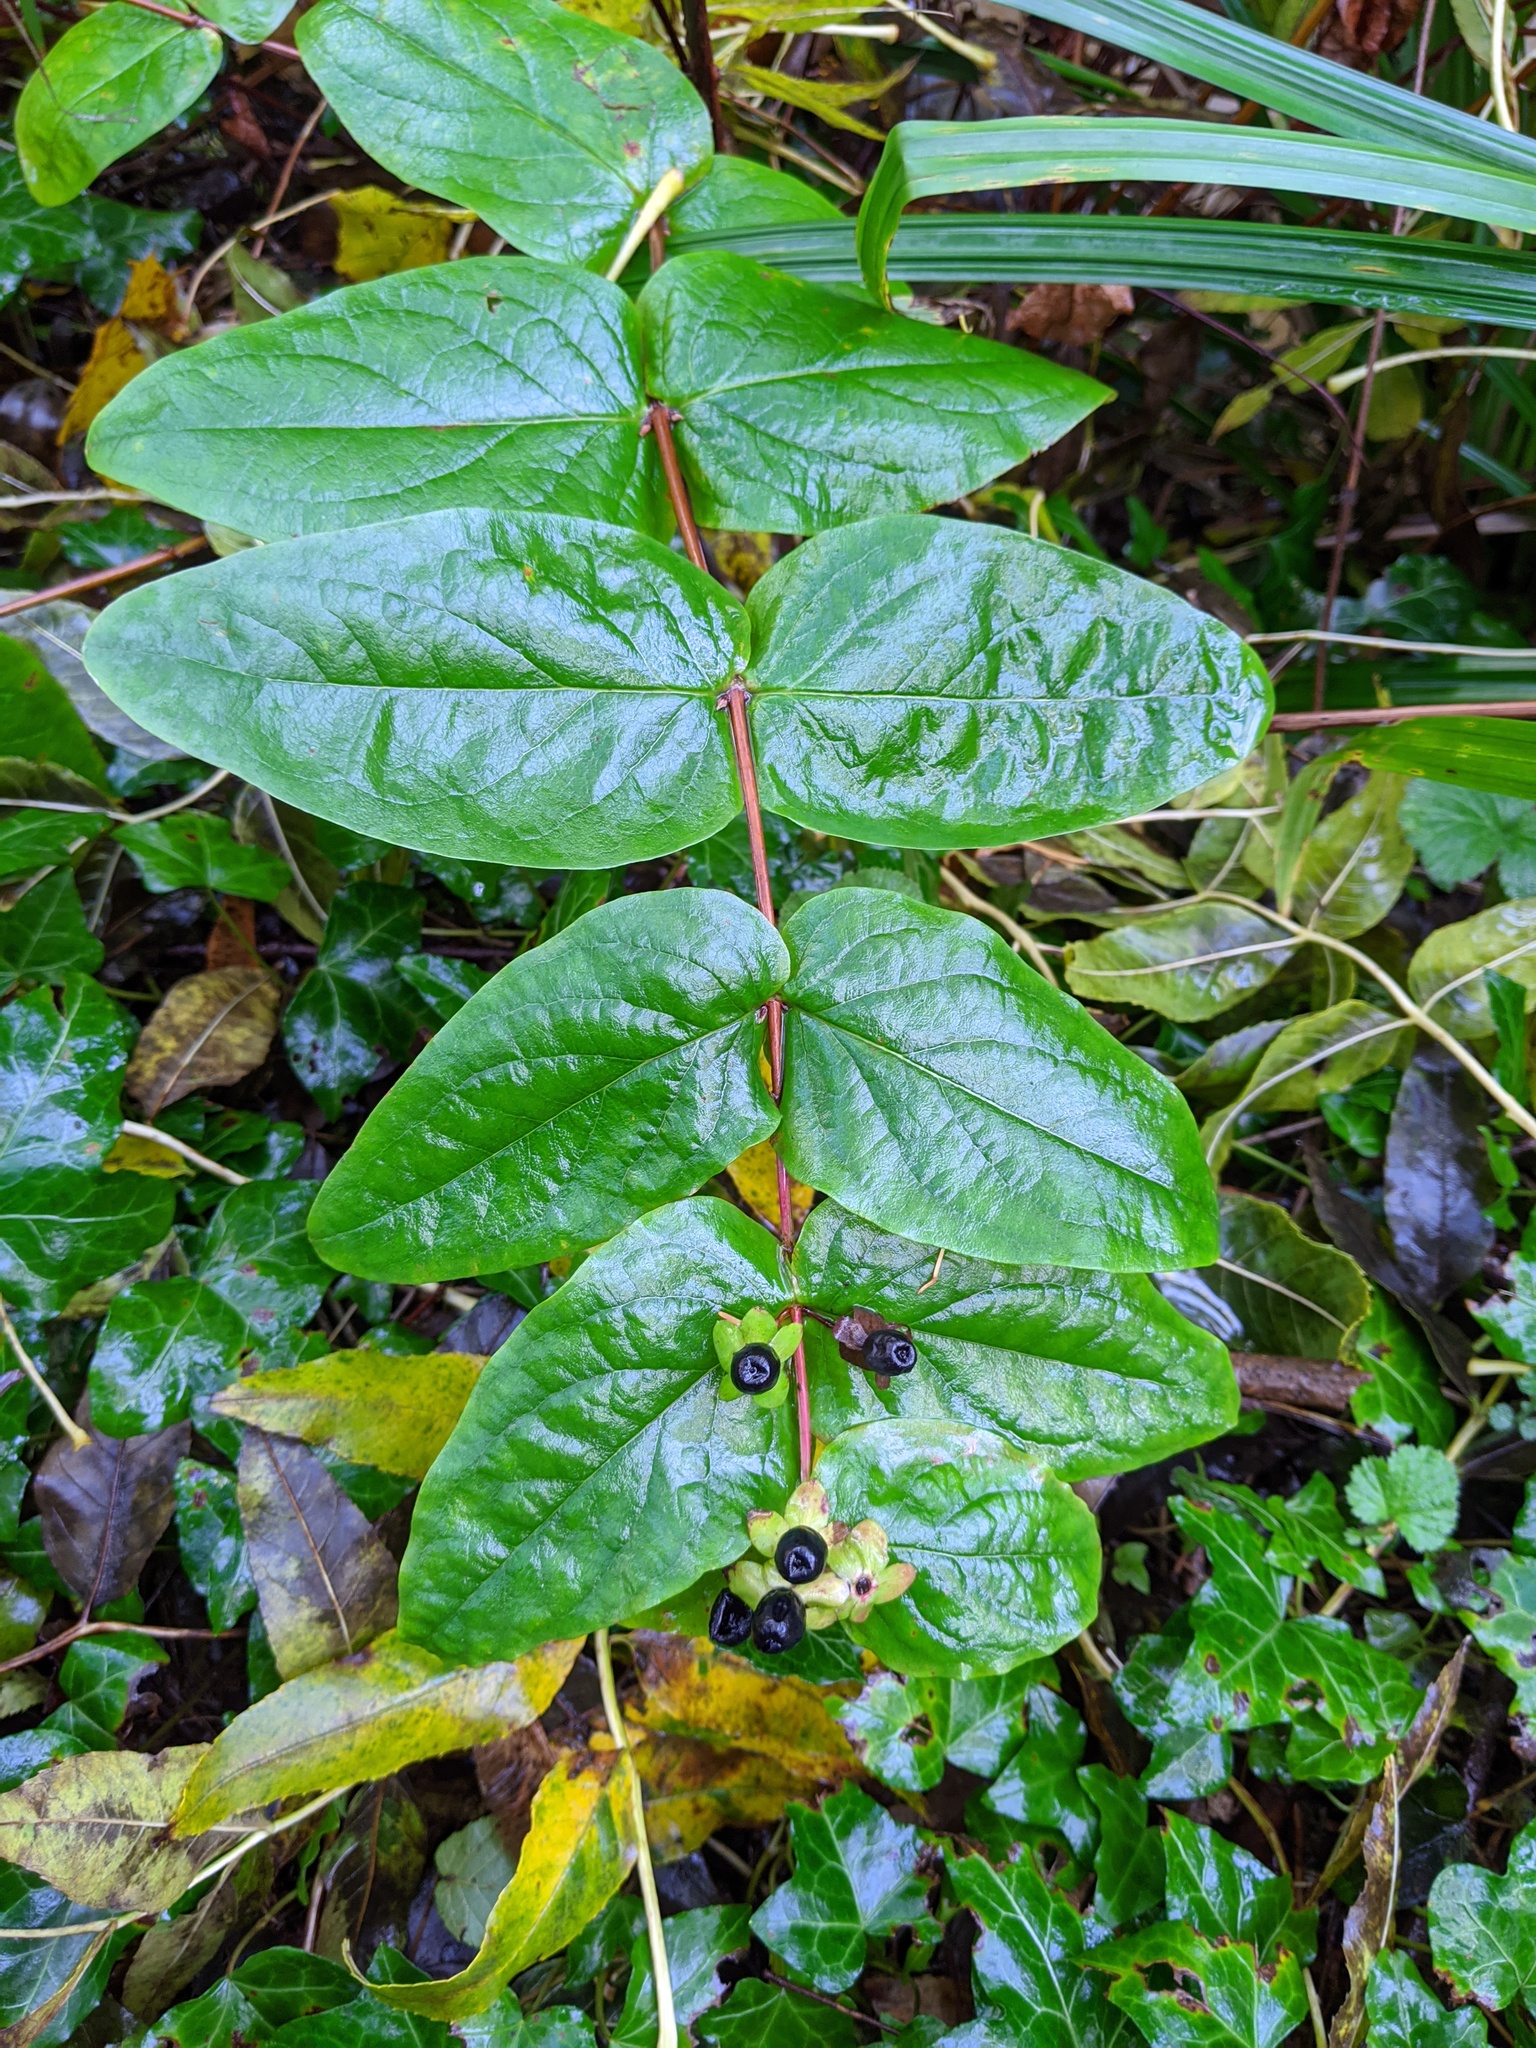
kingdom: Plantae
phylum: Tracheophyta
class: Magnoliopsida
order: Malpighiales
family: Hypericaceae
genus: Hypericum
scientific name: Hypericum androsaemum
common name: Sweet-amber
